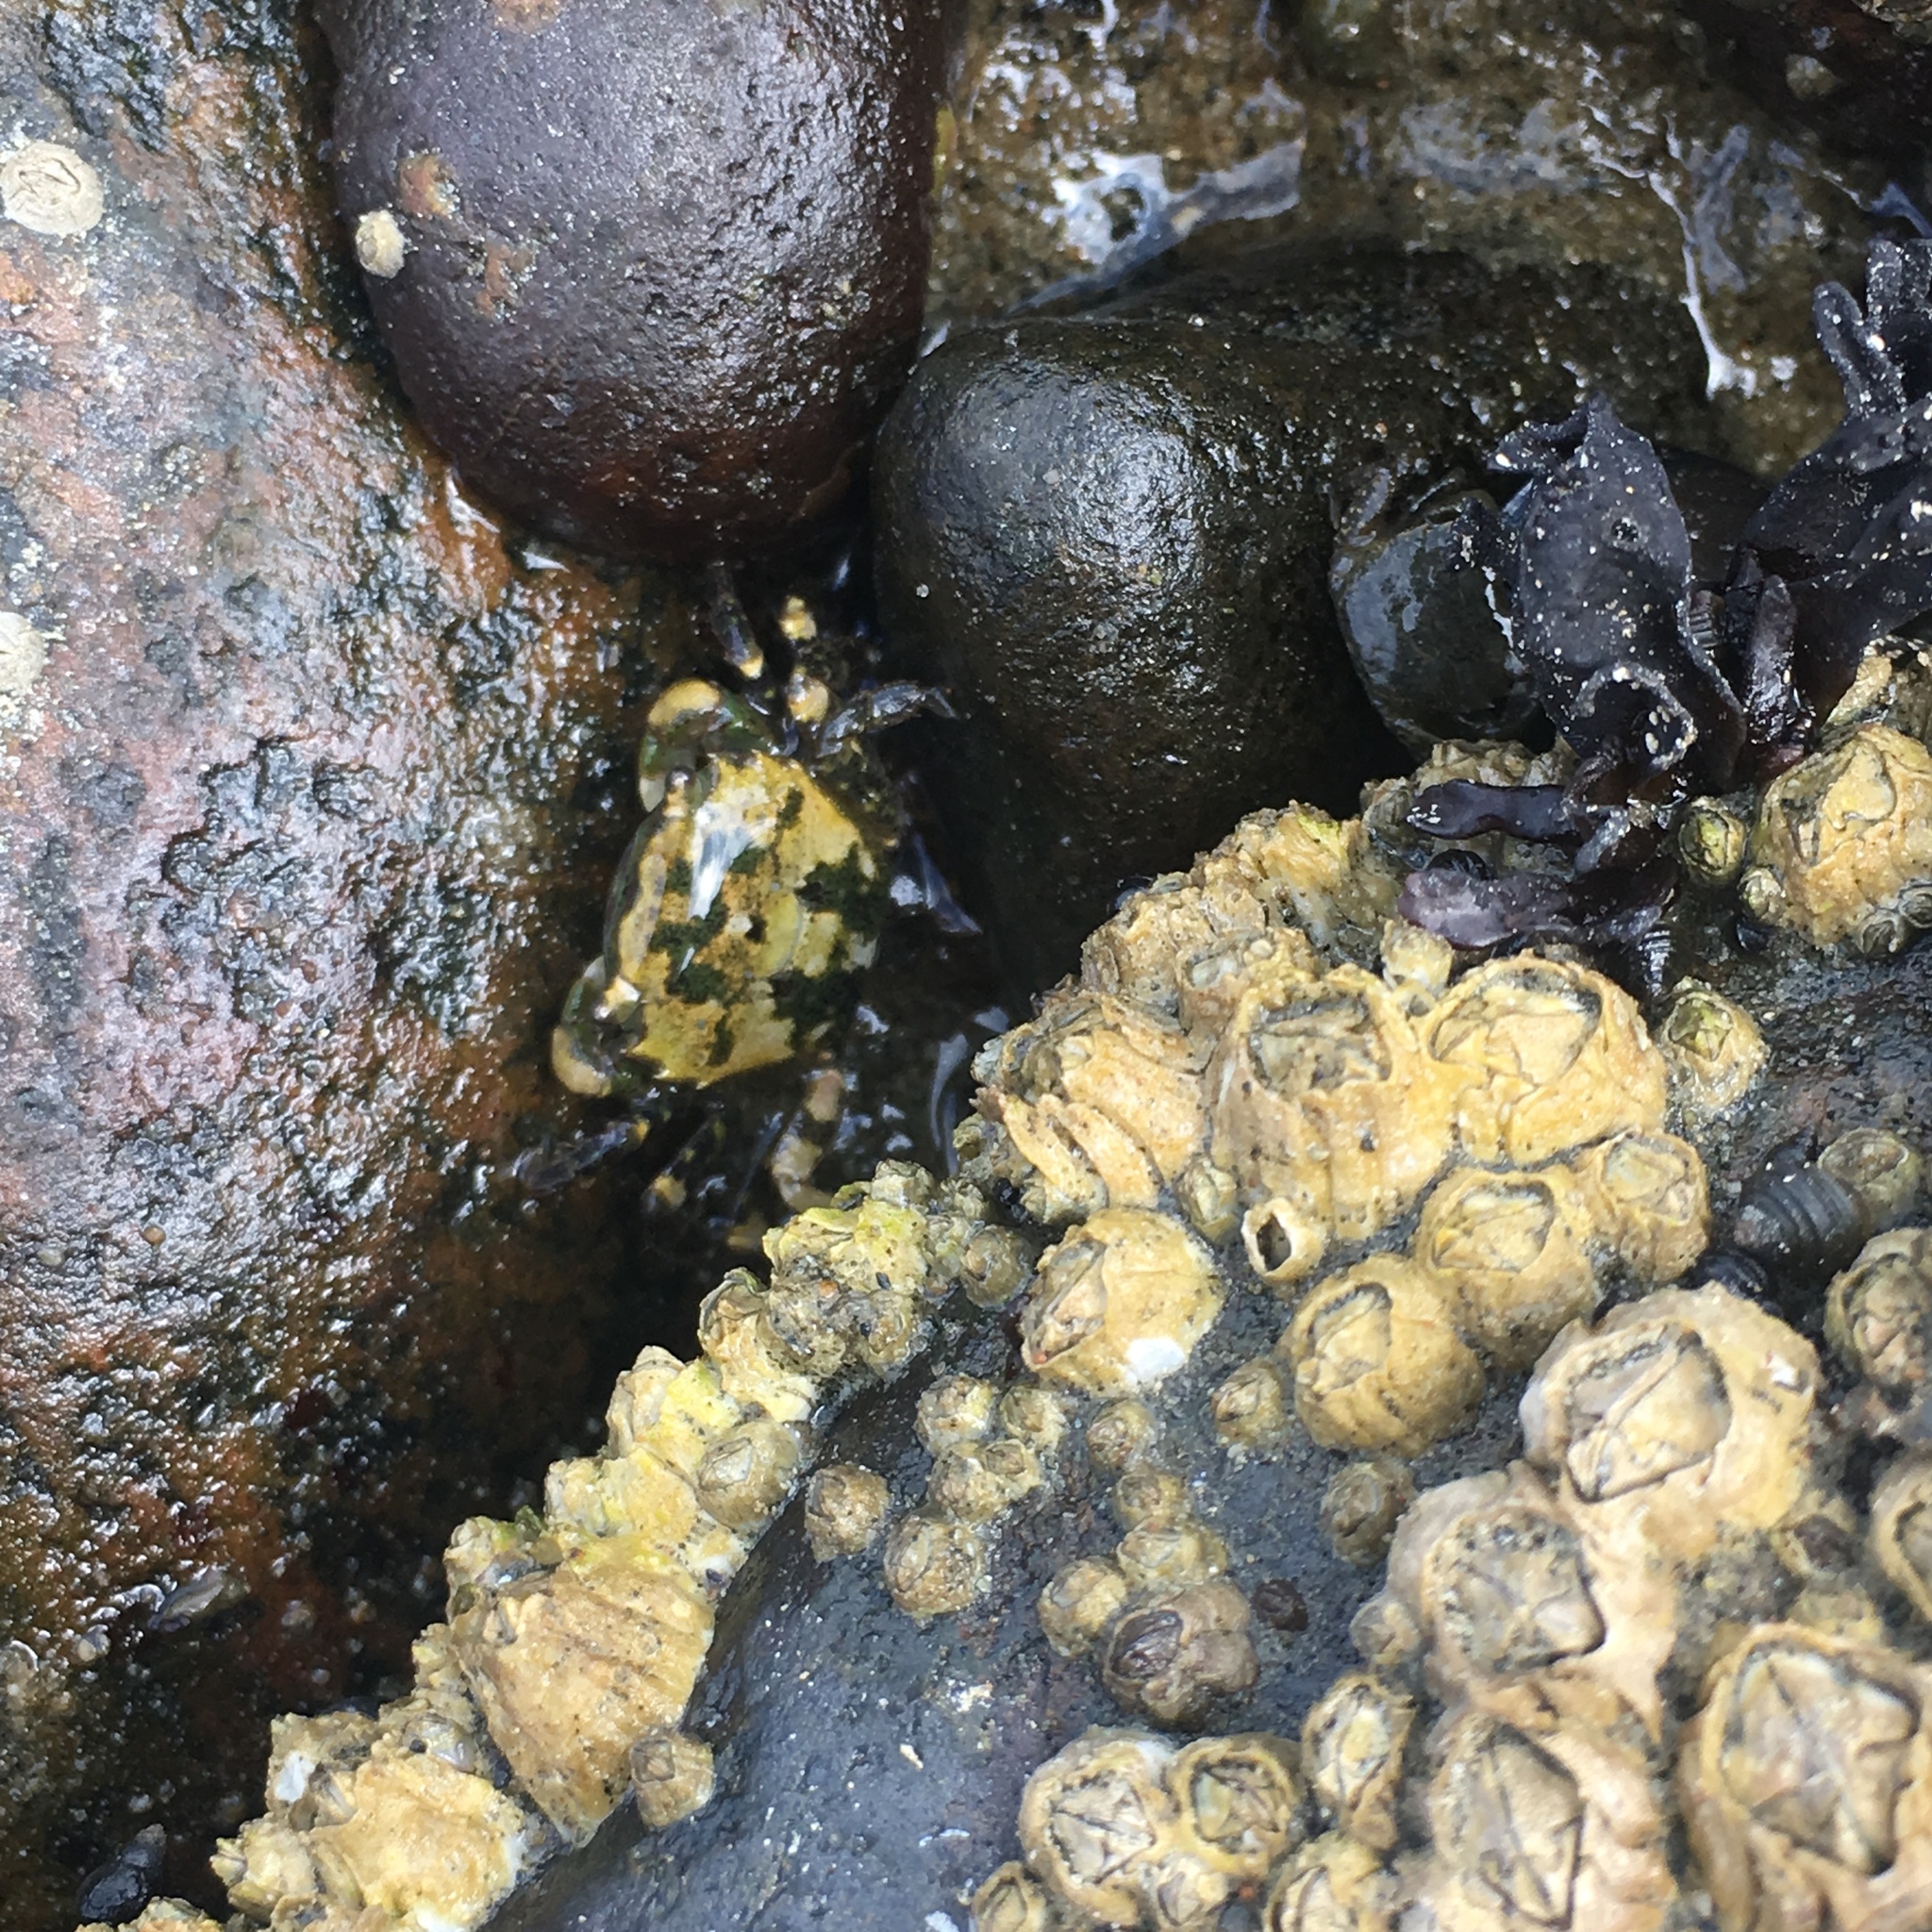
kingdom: Animalia
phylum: Arthropoda
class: Malacostraca
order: Decapoda
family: Varunidae
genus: Hemigrapsus
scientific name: Hemigrapsus oregonensis
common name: Yellow shore crab
